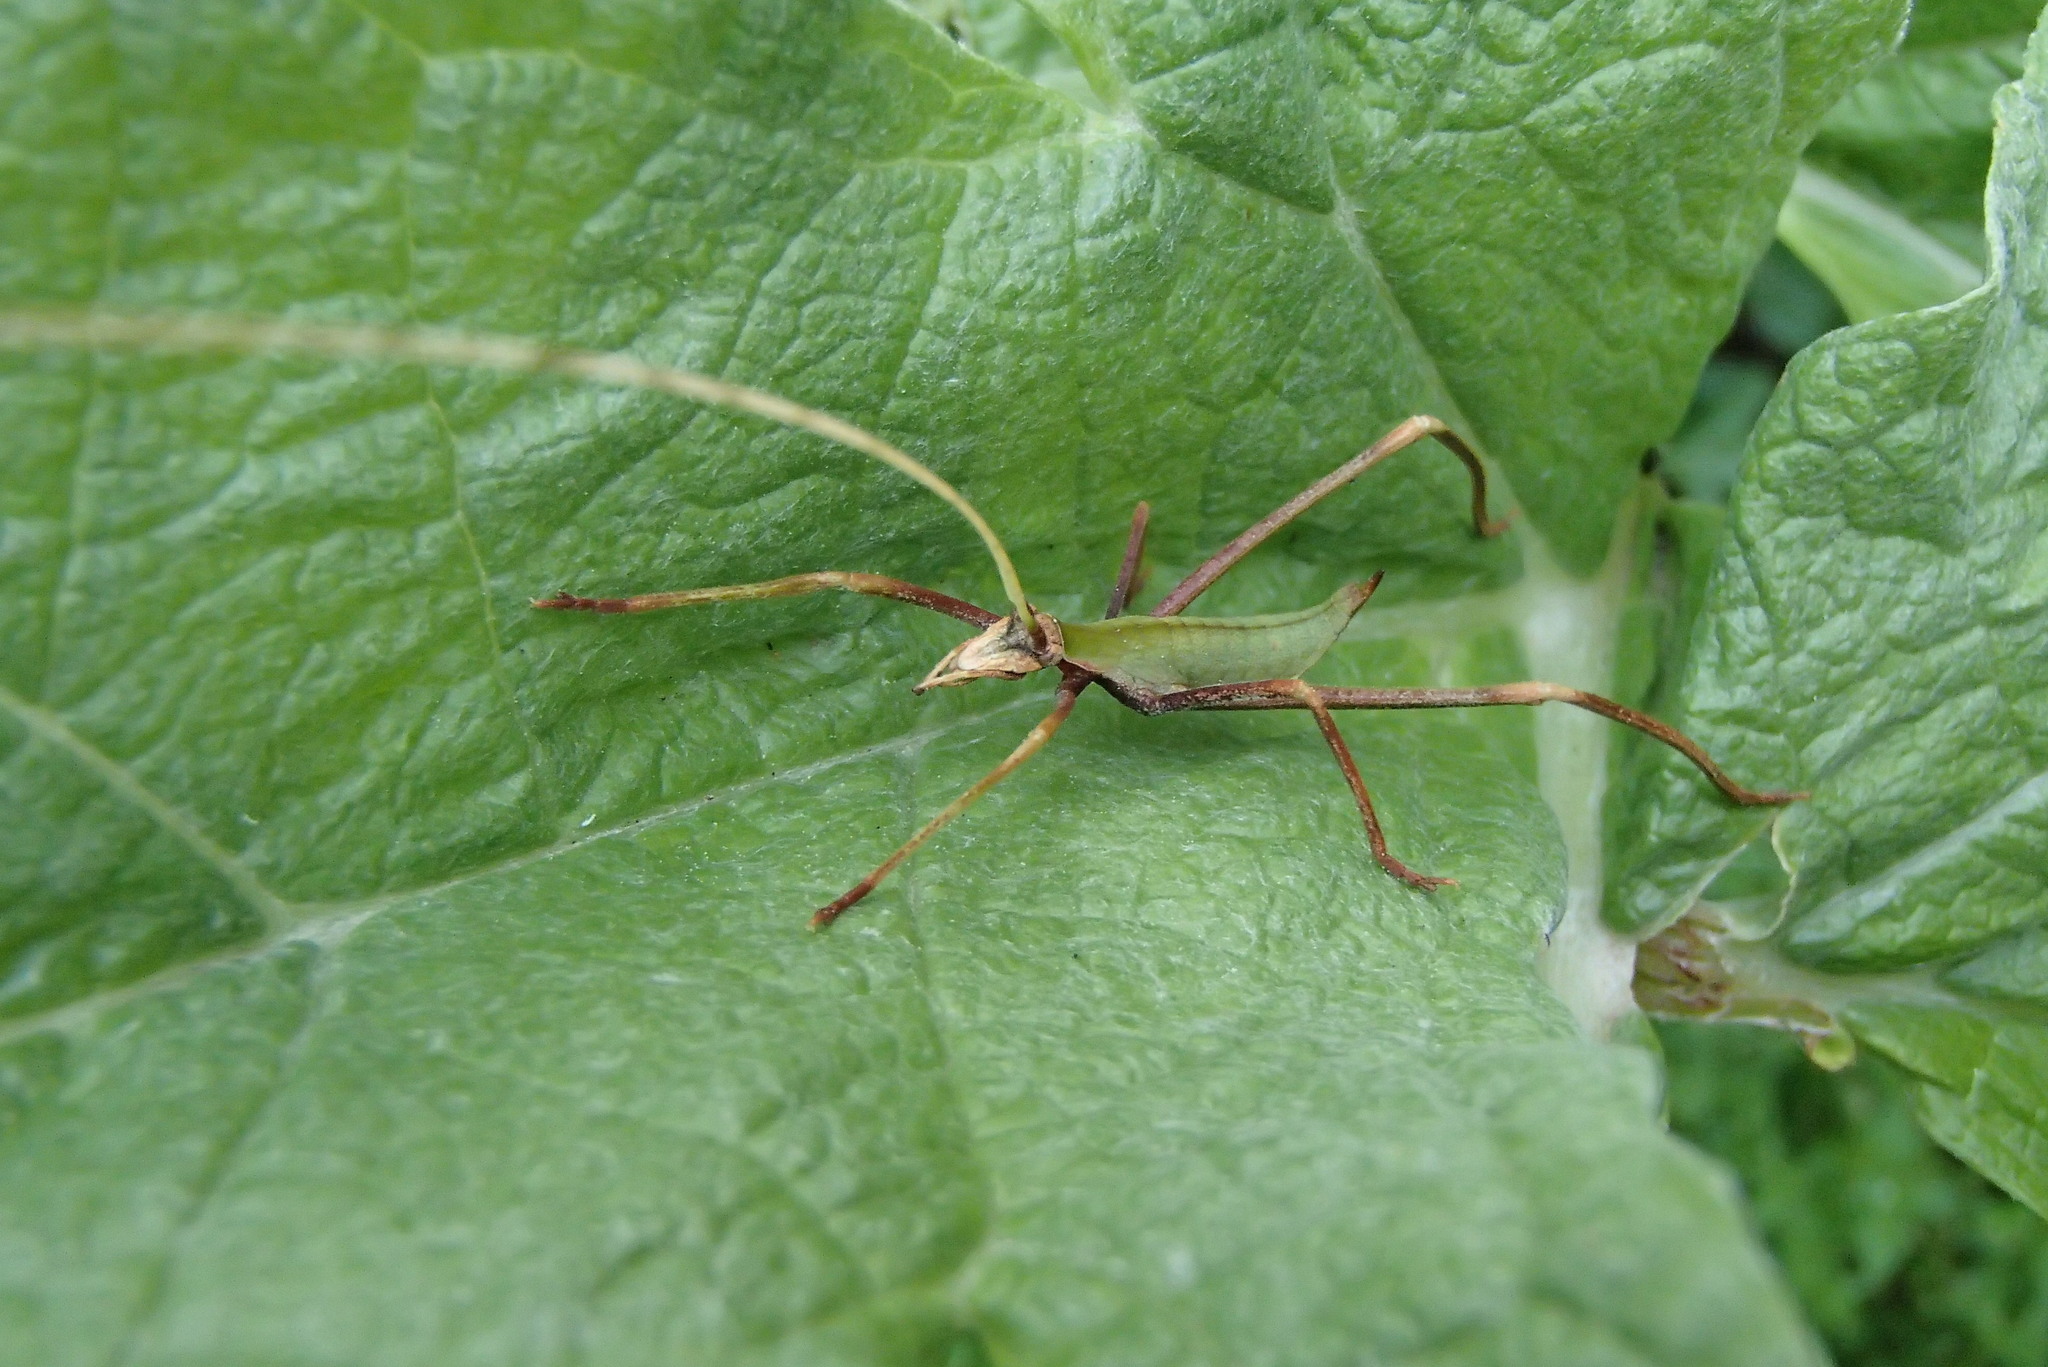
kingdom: Animalia
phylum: Arthropoda
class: Insecta
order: Orthoptera
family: Tettigoniidae
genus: Anthophiloptera
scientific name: Anthophiloptera dryas
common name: Balsam beast
